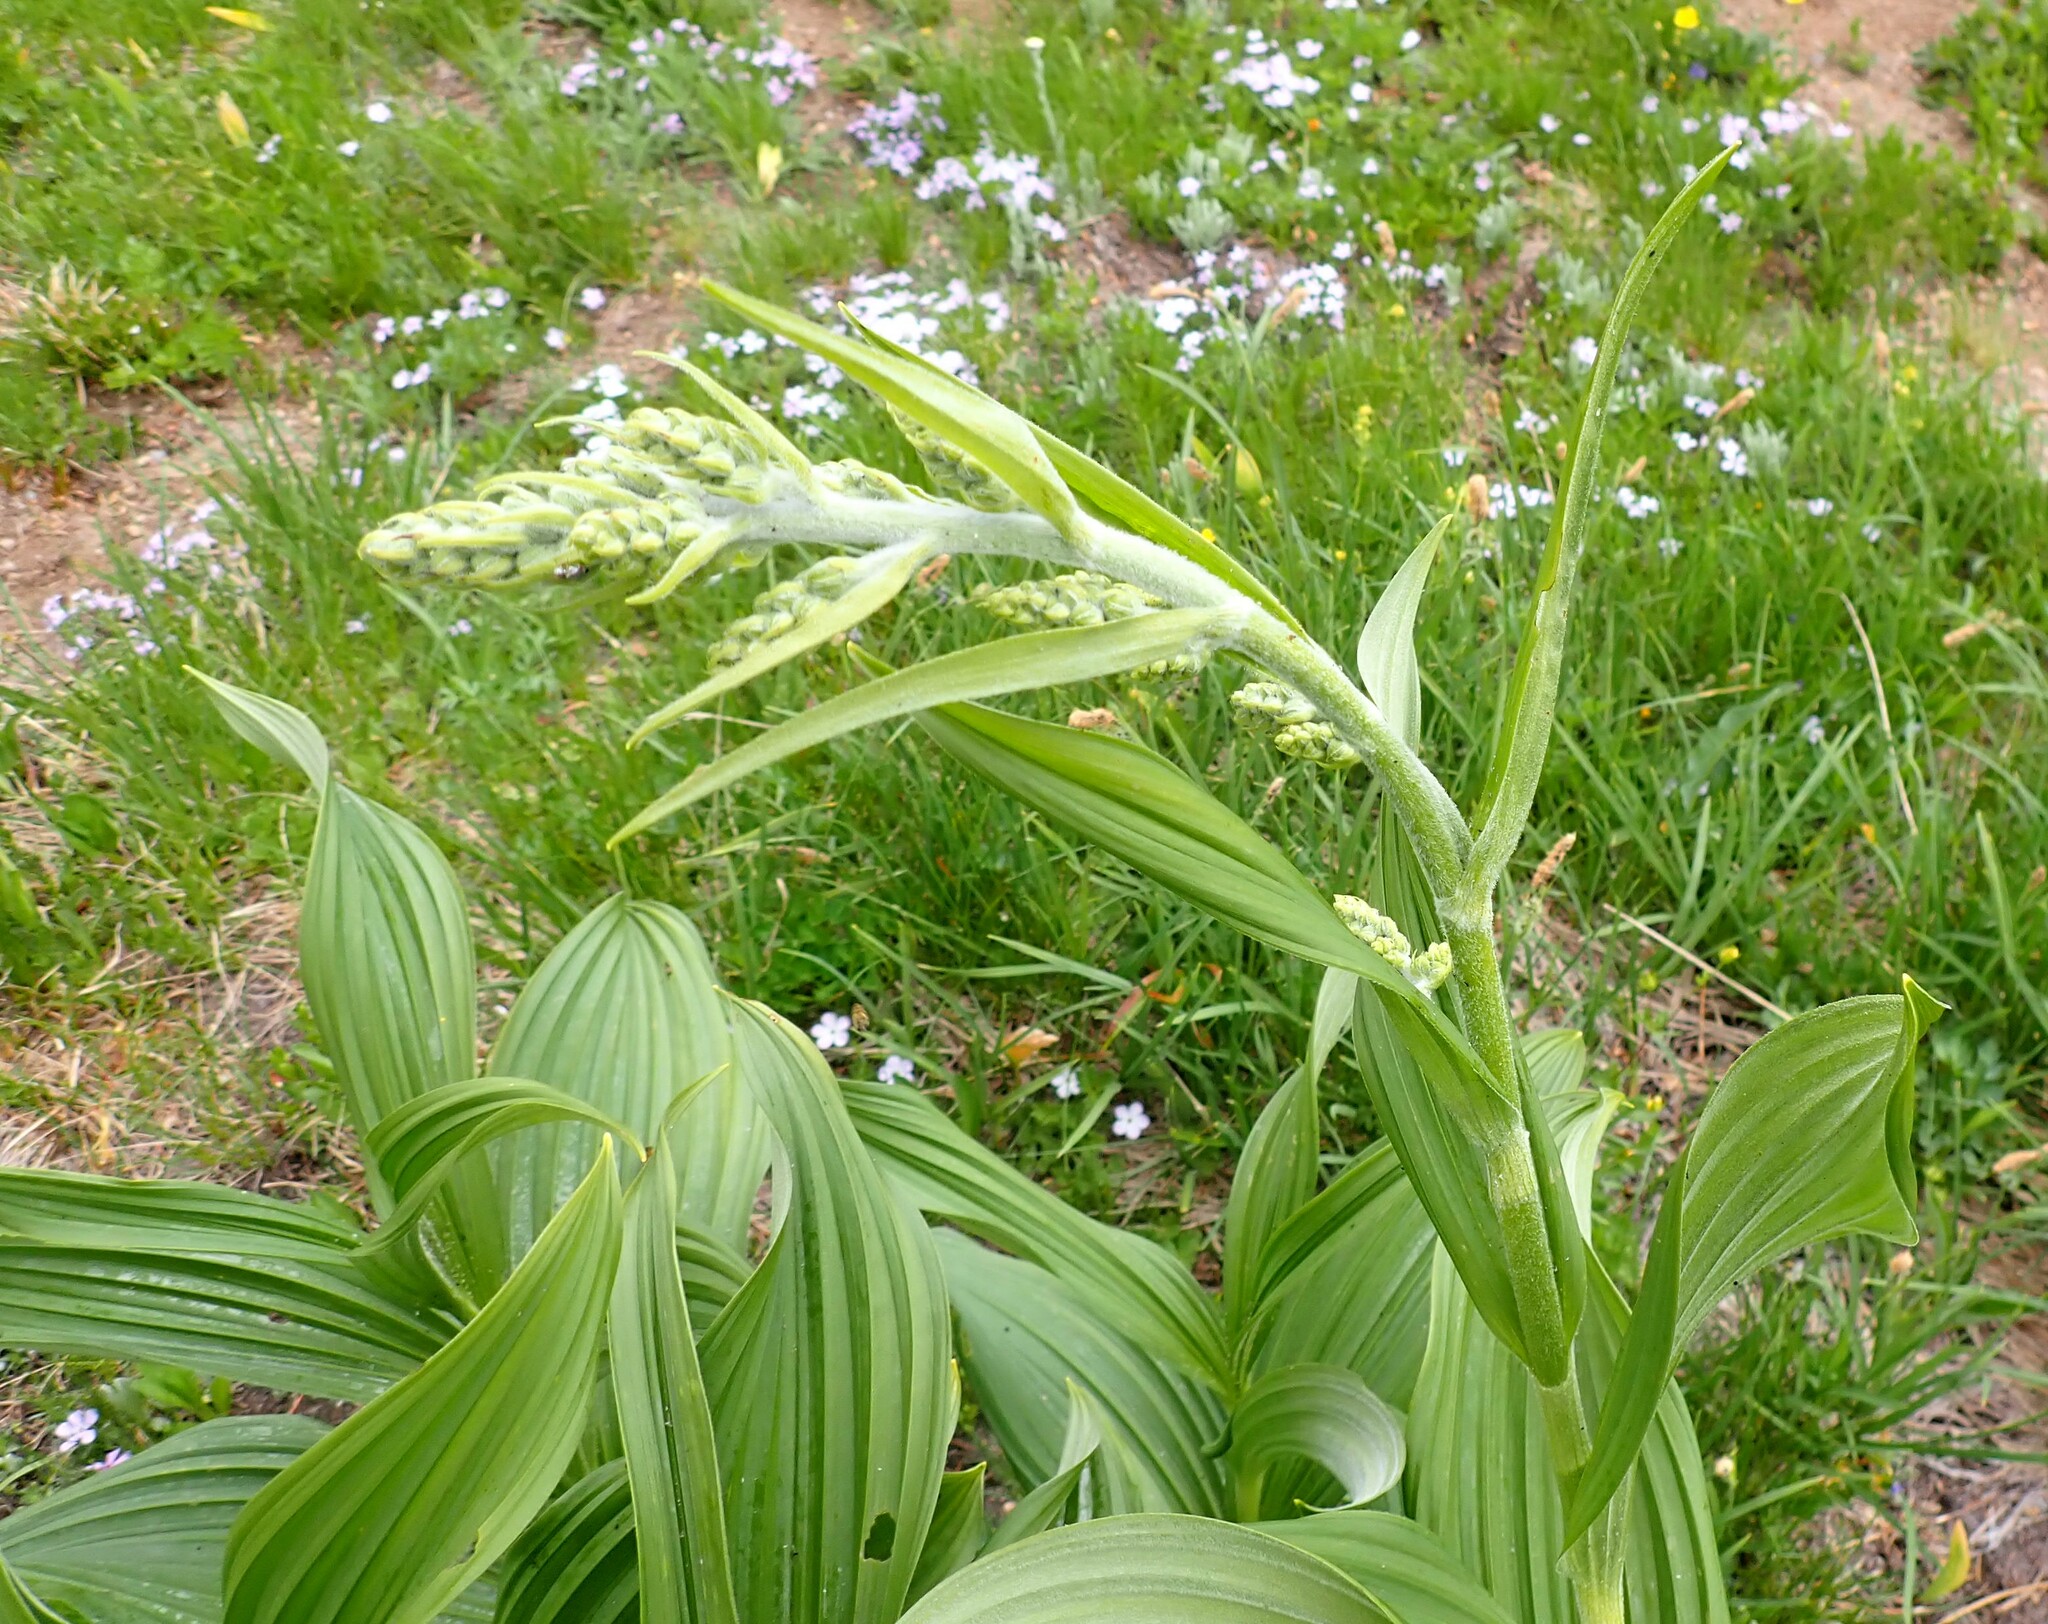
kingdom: Plantae
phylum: Tracheophyta
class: Liliopsida
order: Liliales
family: Melanthiaceae
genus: Veratrum
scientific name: Veratrum viride
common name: American false hellebore
